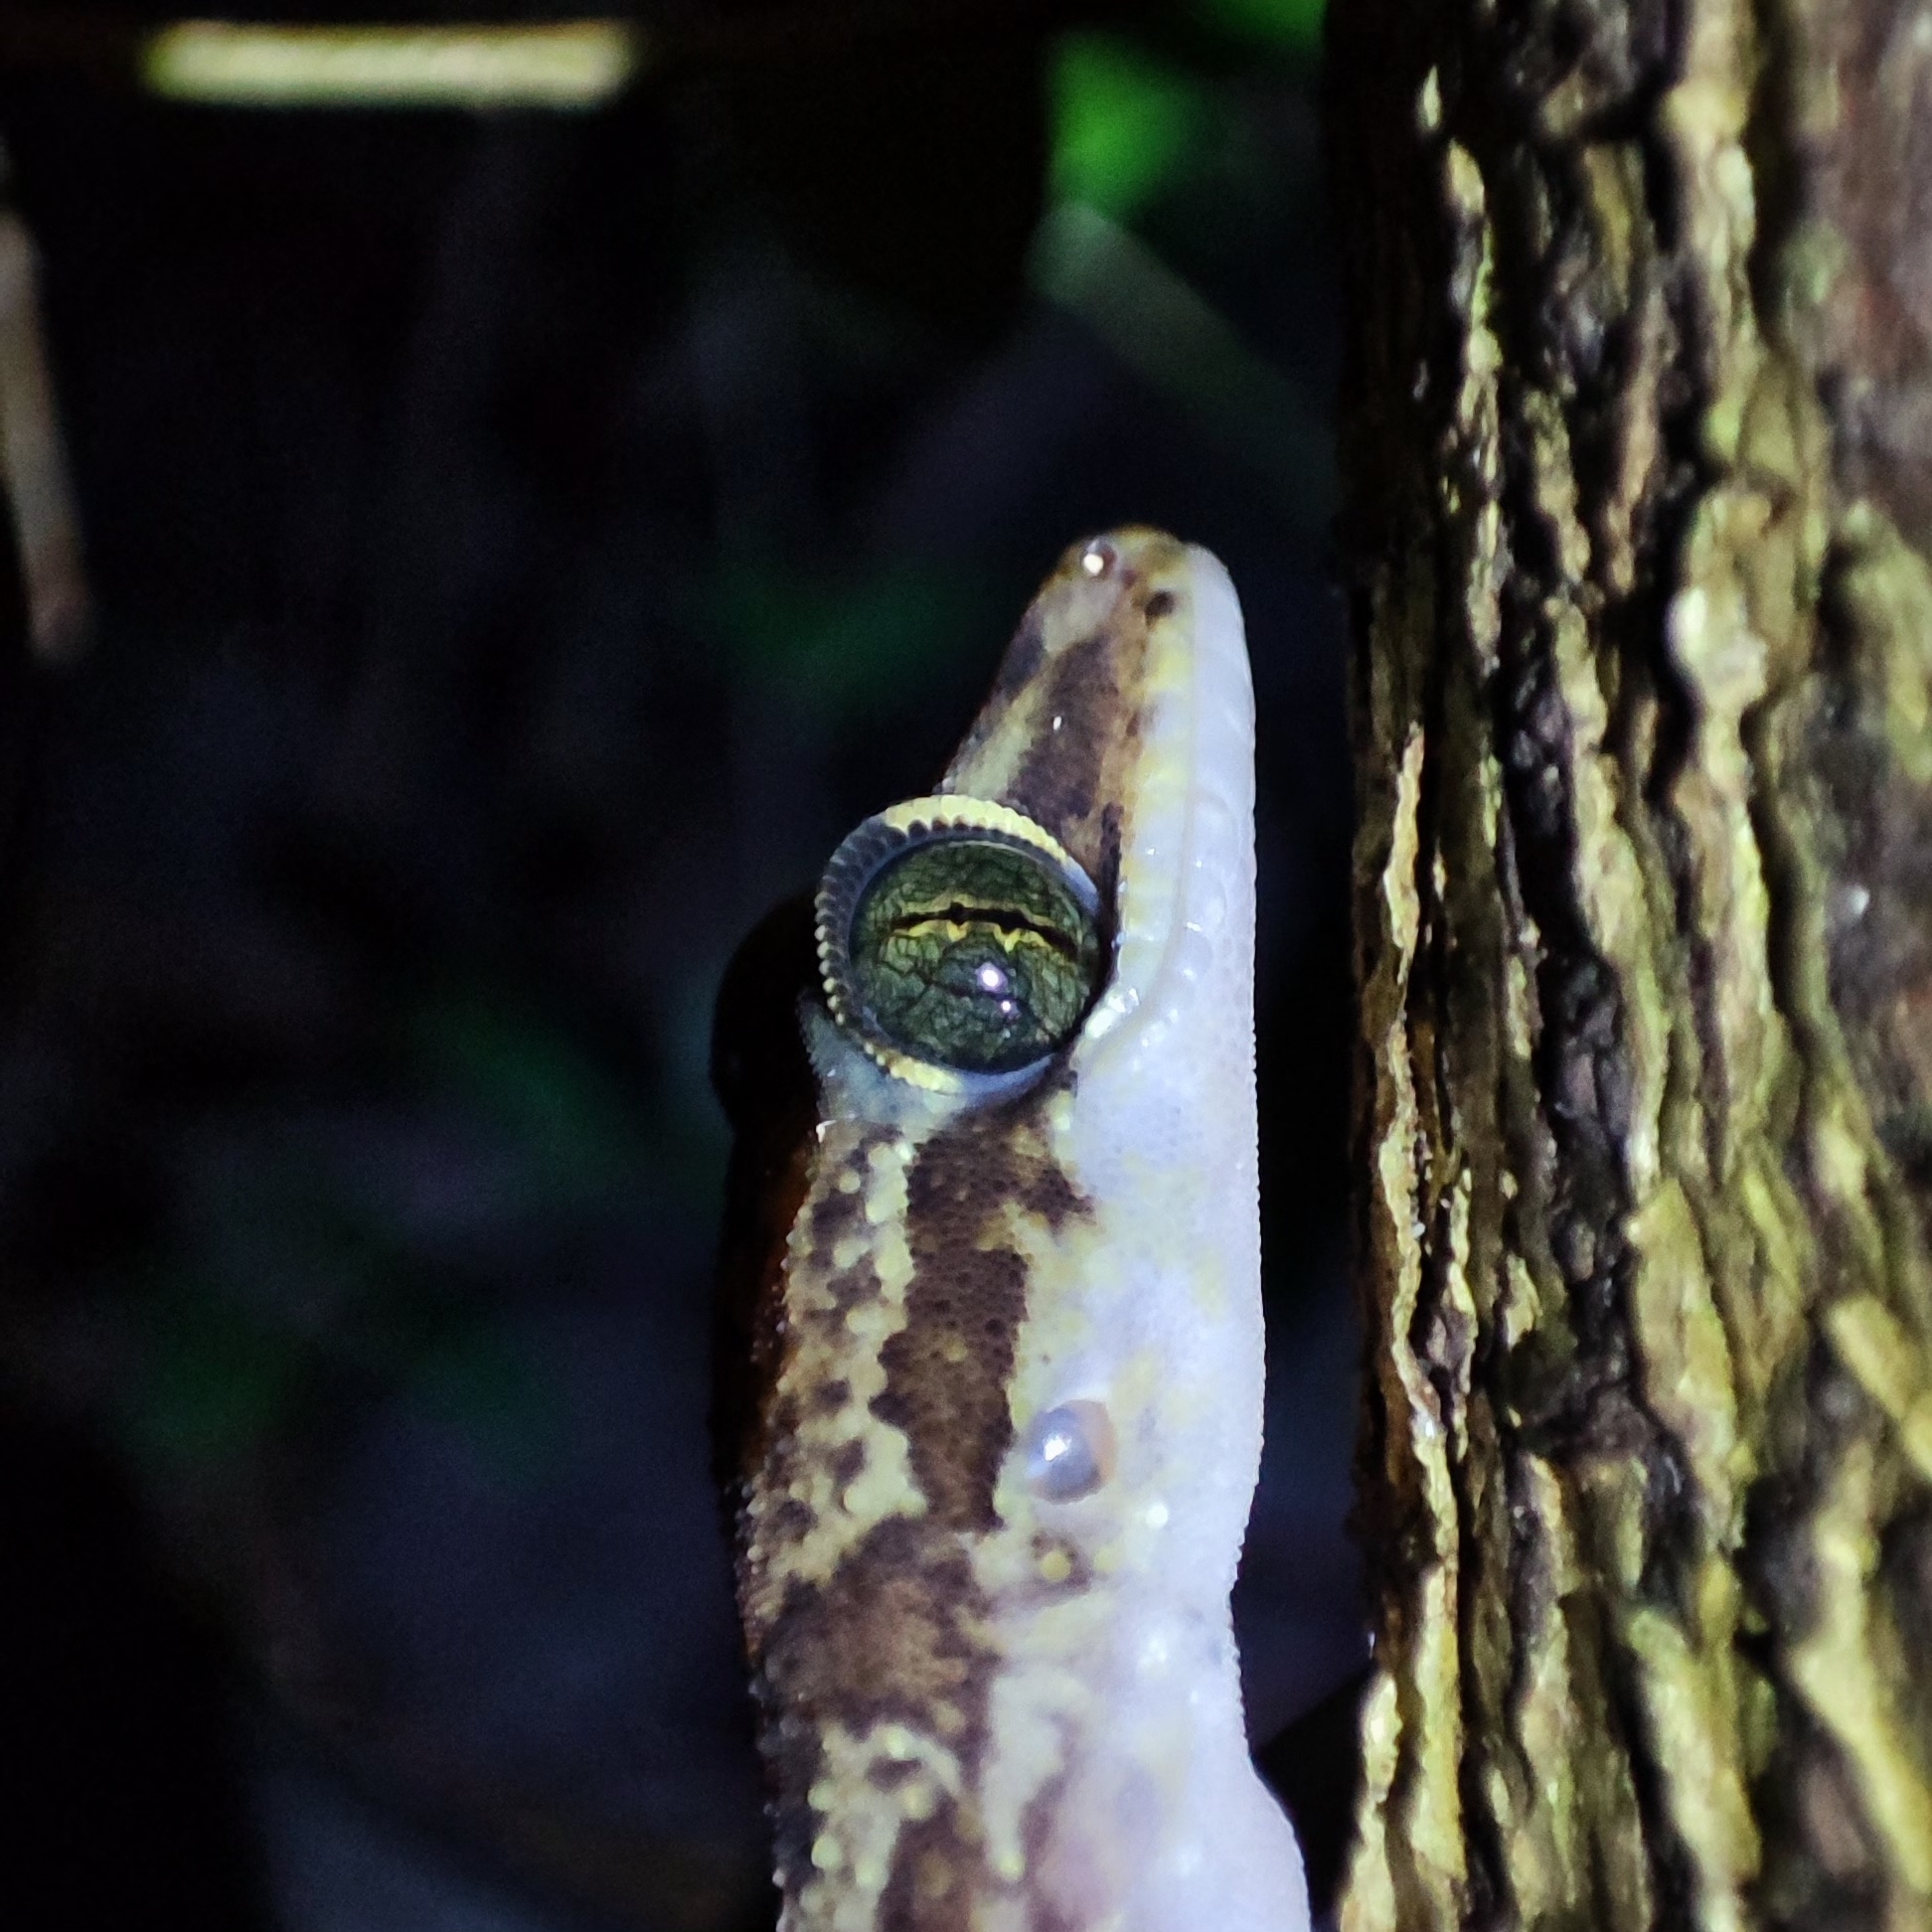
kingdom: Animalia
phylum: Chordata
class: Squamata
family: Gekkonidae
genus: Cyrtodactylus
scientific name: Cyrtodactylus condorensis
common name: Pulo condore bow-fingered gecko
